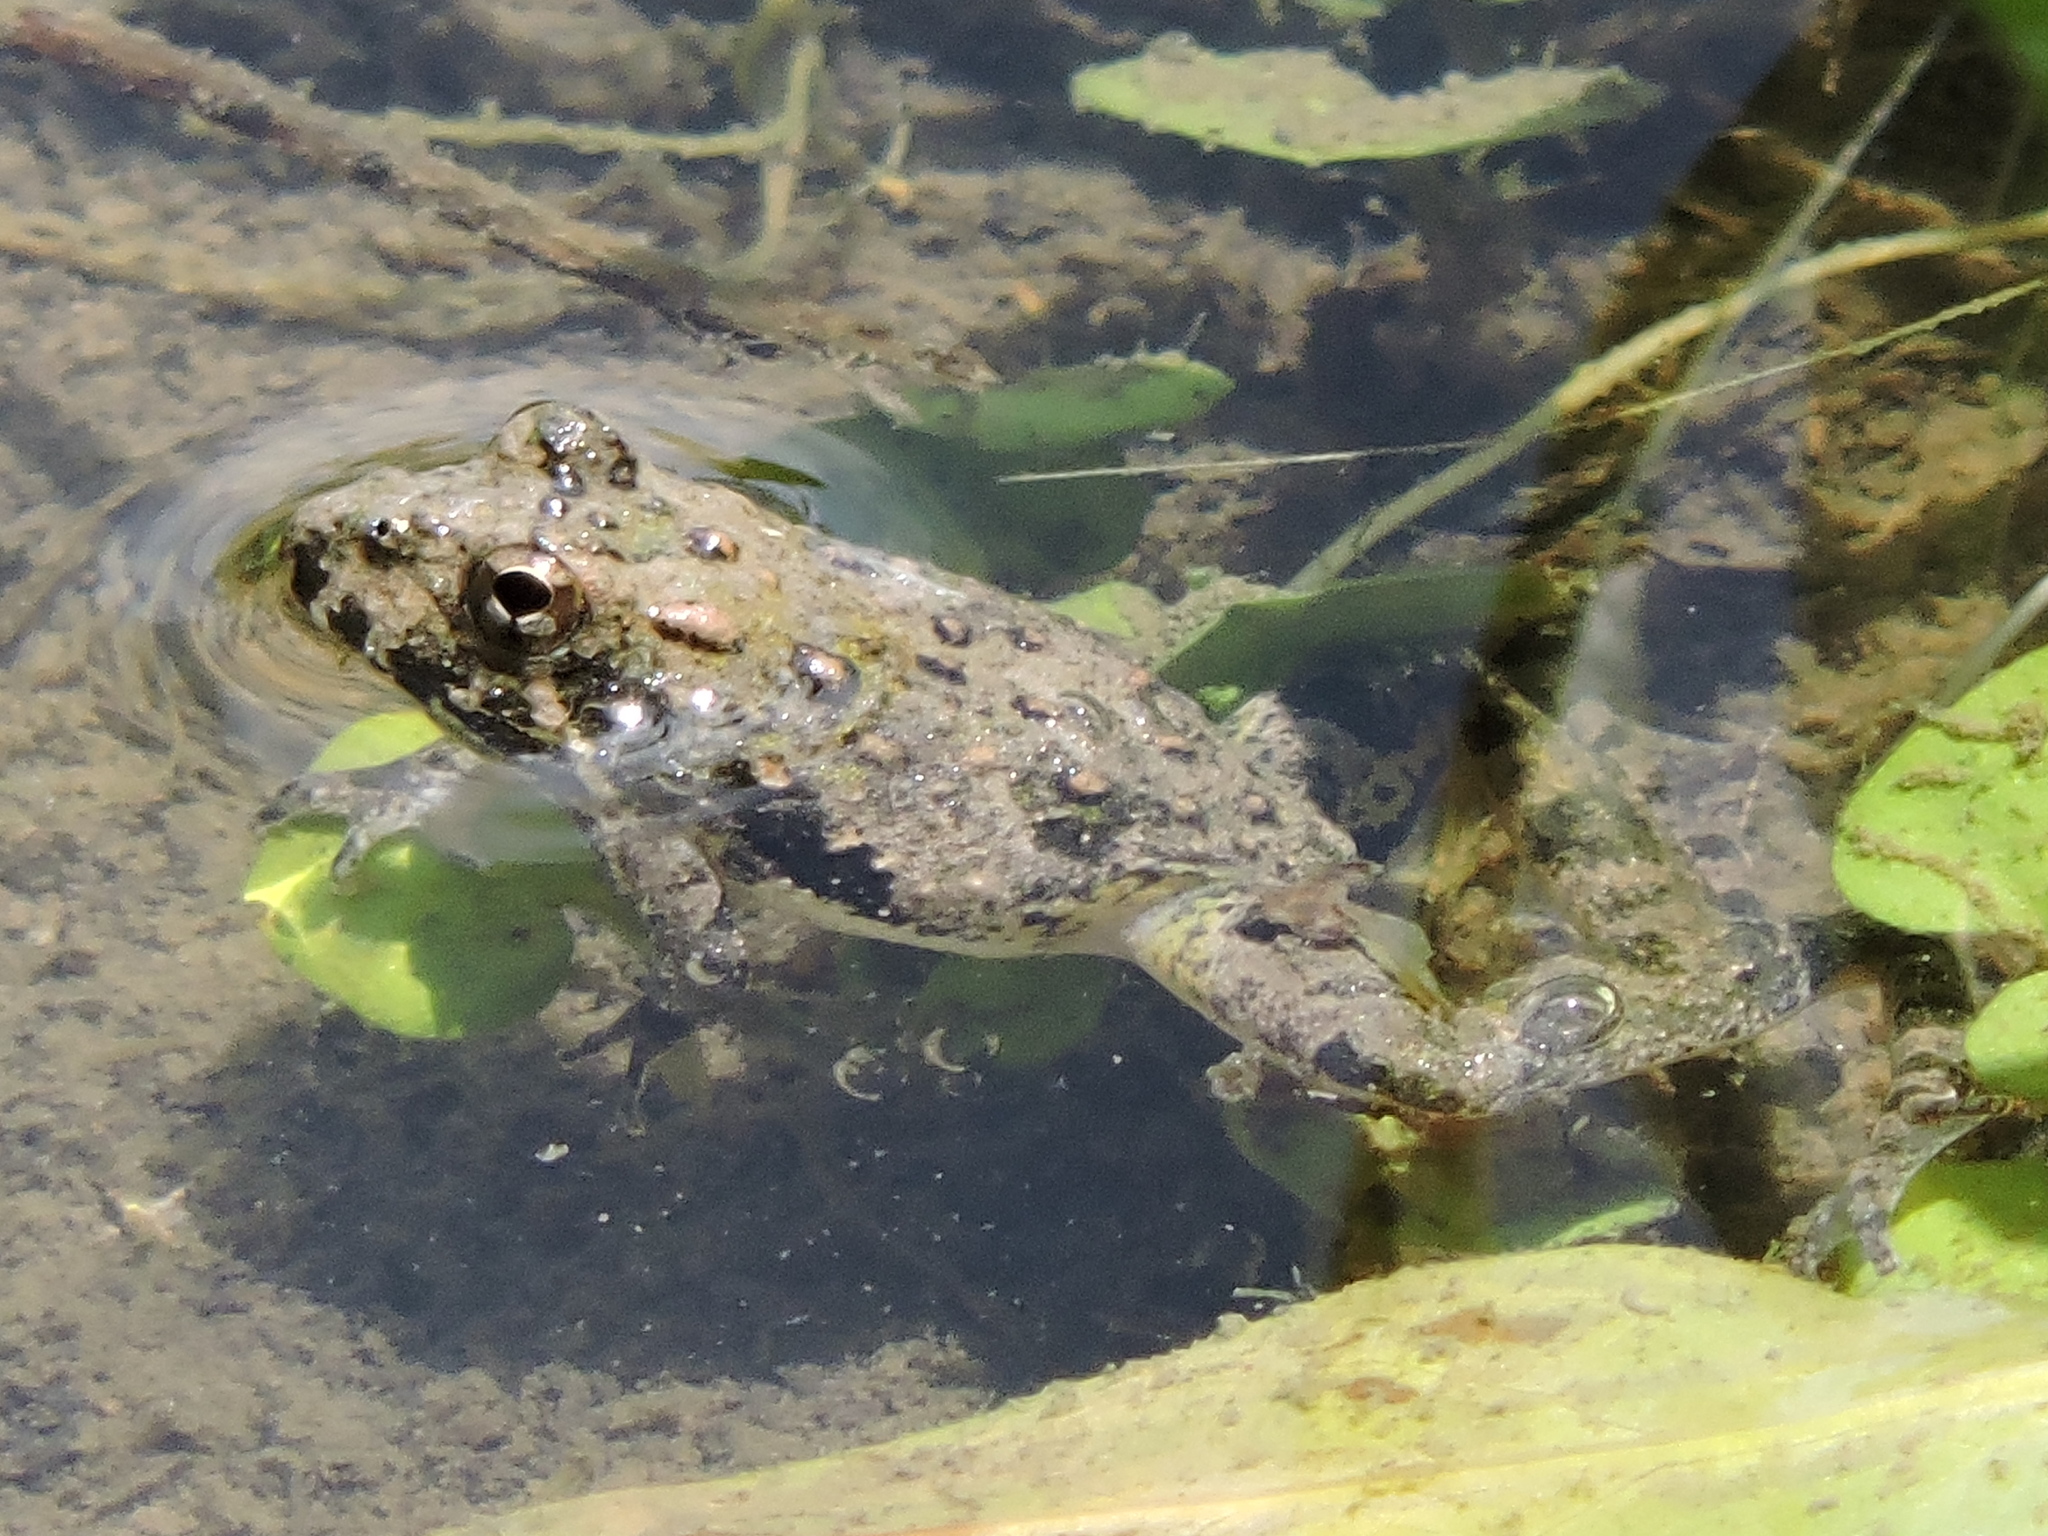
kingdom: Animalia
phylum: Chordata
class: Amphibia
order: Anura
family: Hylidae
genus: Acris
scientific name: Acris blanchardi
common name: Blanchard's cricket frog
